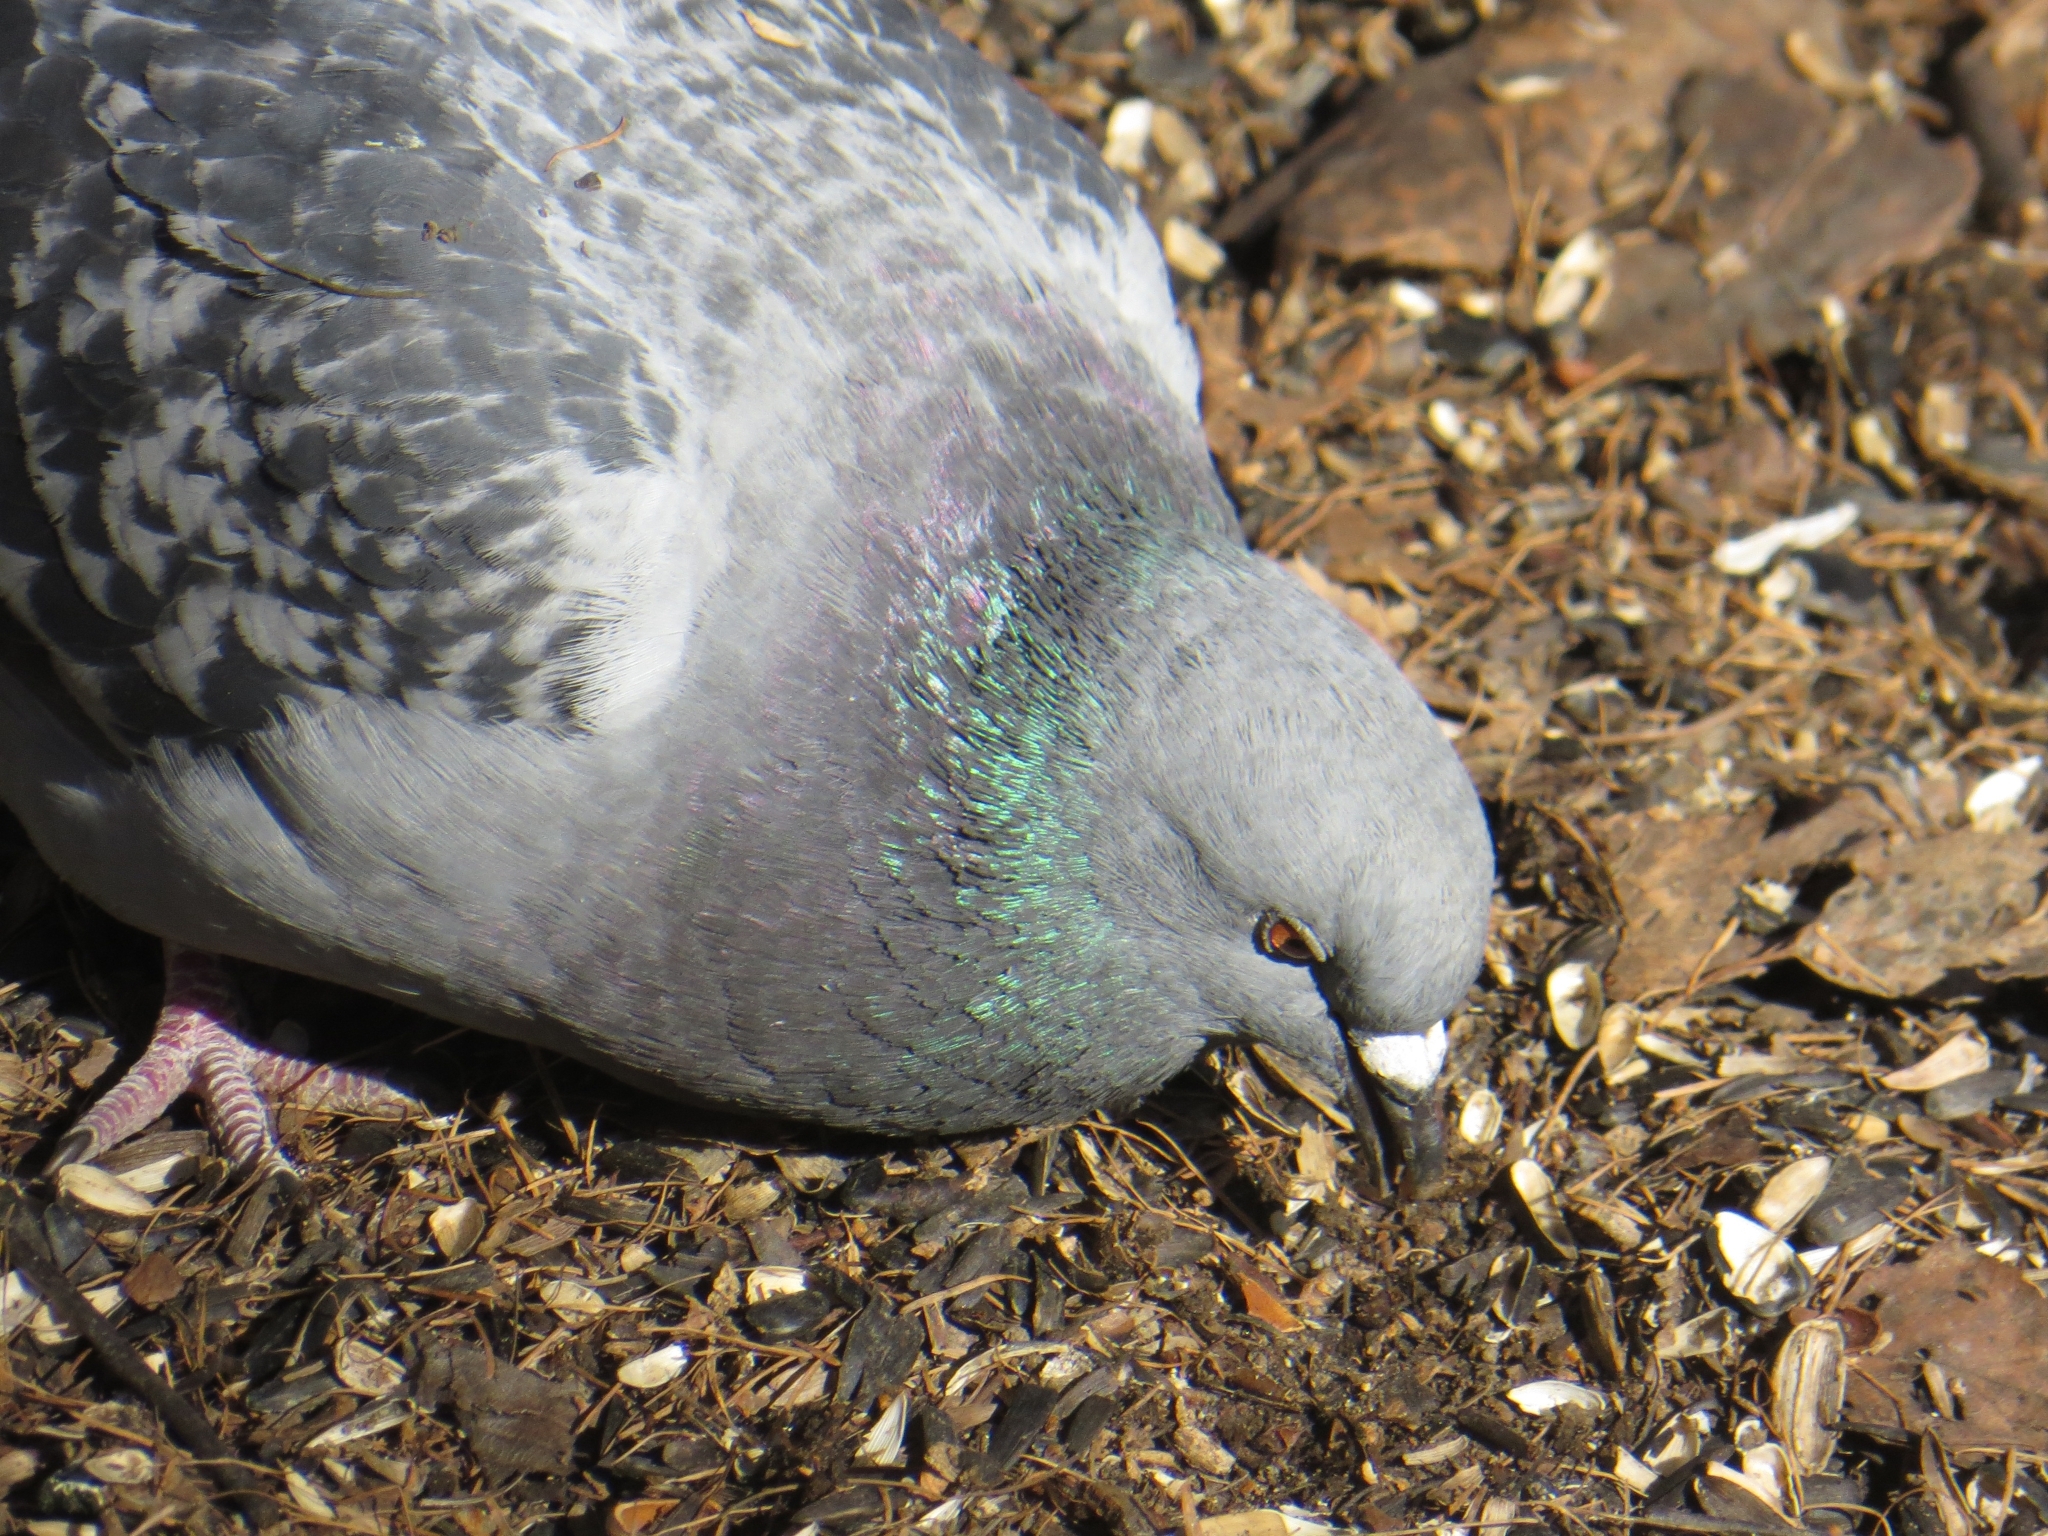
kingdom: Animalia
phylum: Chordata
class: Aves
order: Columbiformes
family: Columbidae
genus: Columba
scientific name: Columba livia
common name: Rock pigeon
